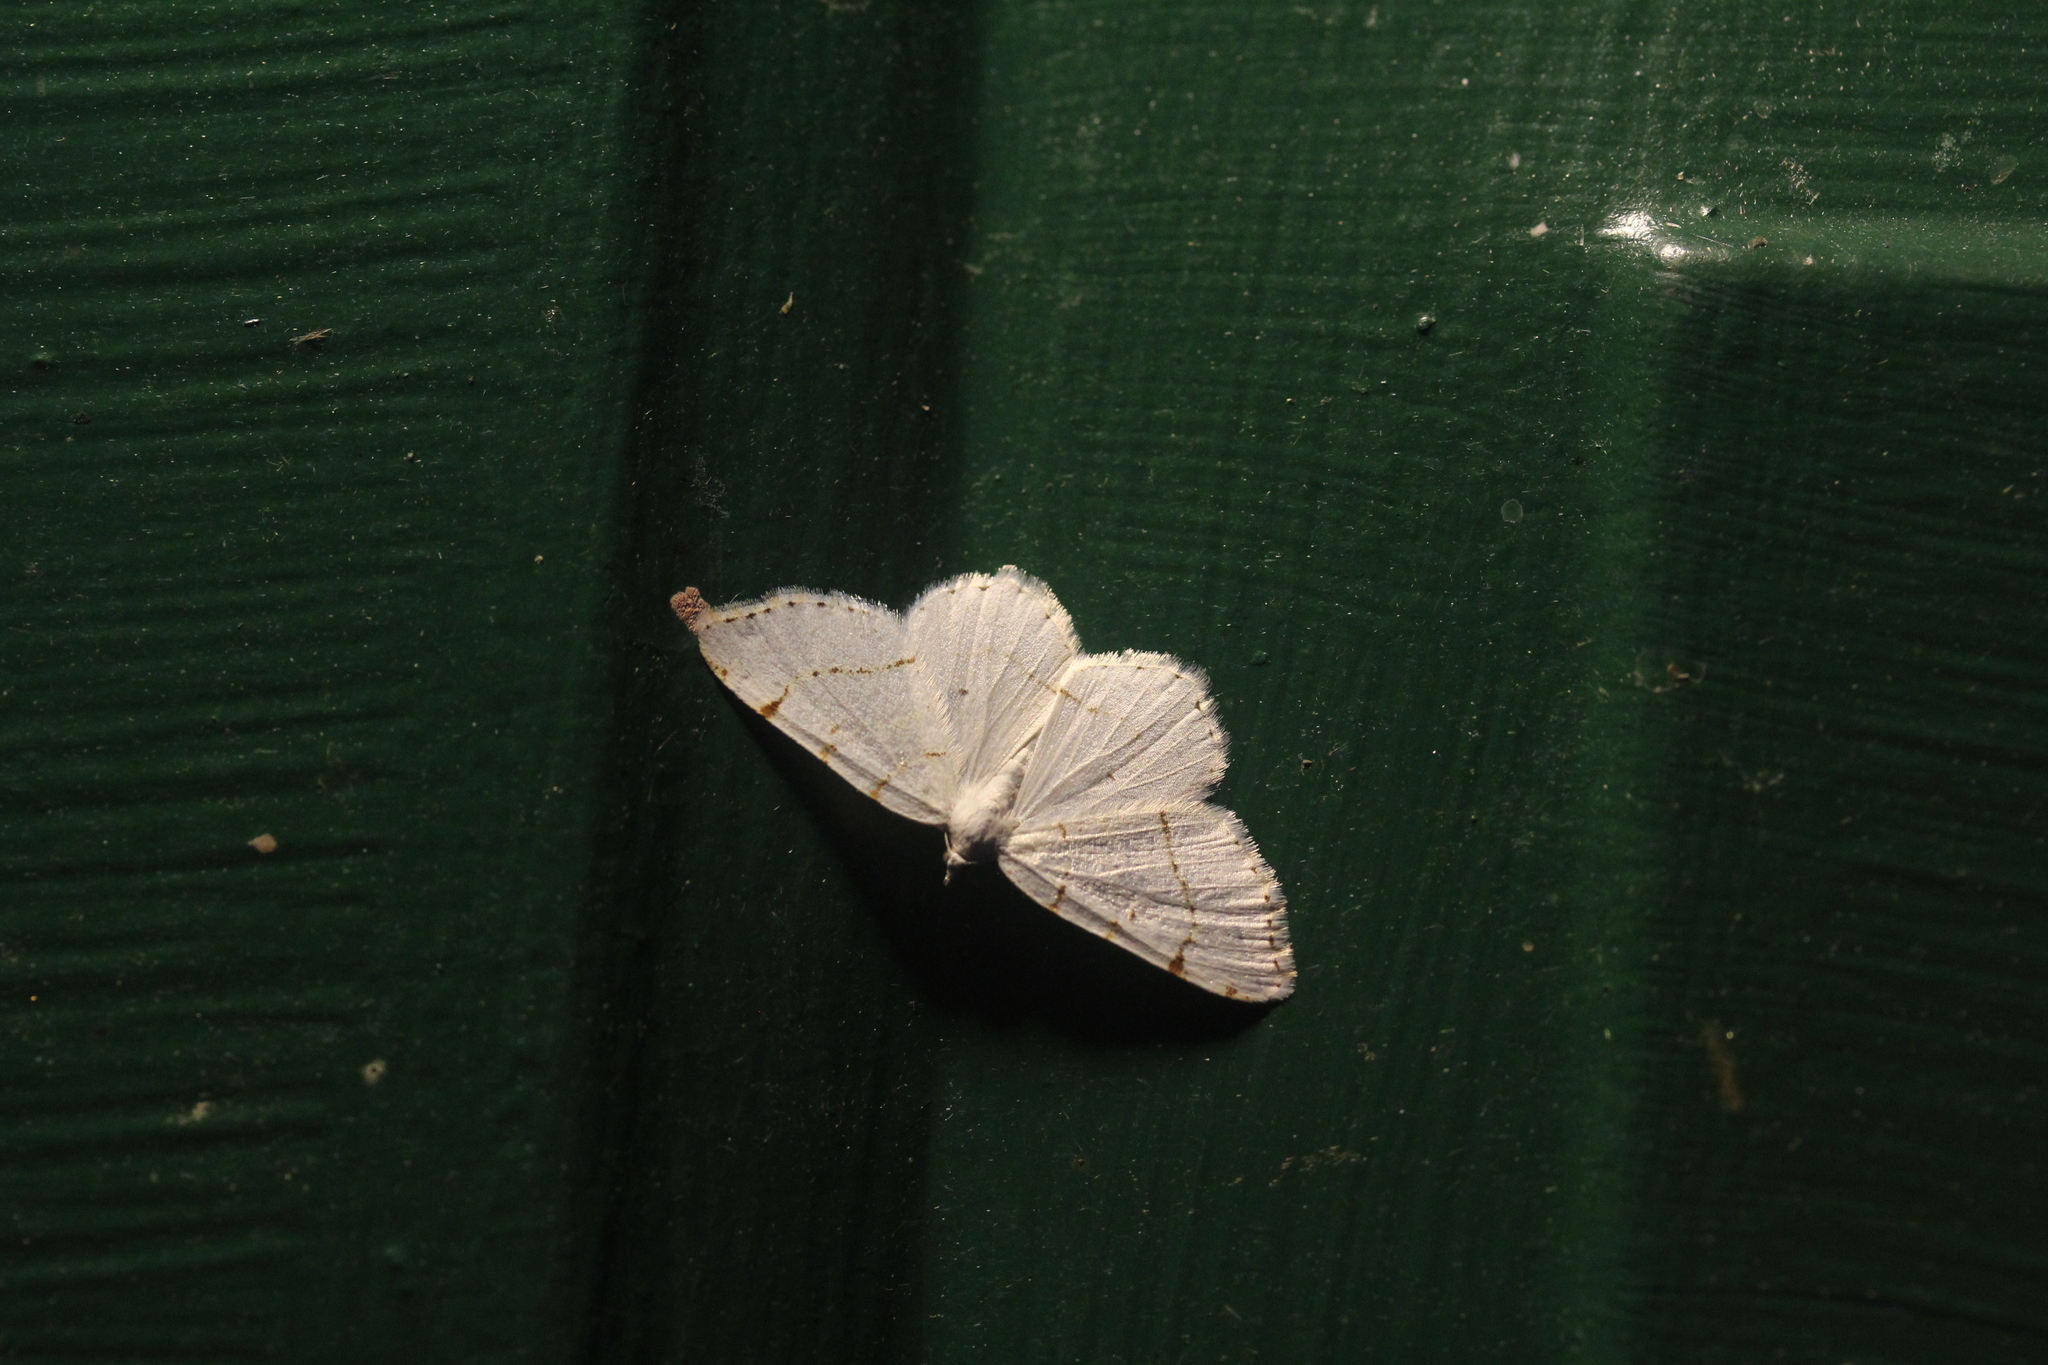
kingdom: Animalia
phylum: Arthropoda
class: Insecta
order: Lepidoptera
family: Geometridae
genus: Macaria
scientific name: Macaria pustularia
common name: Lesser maple spanworm moth
